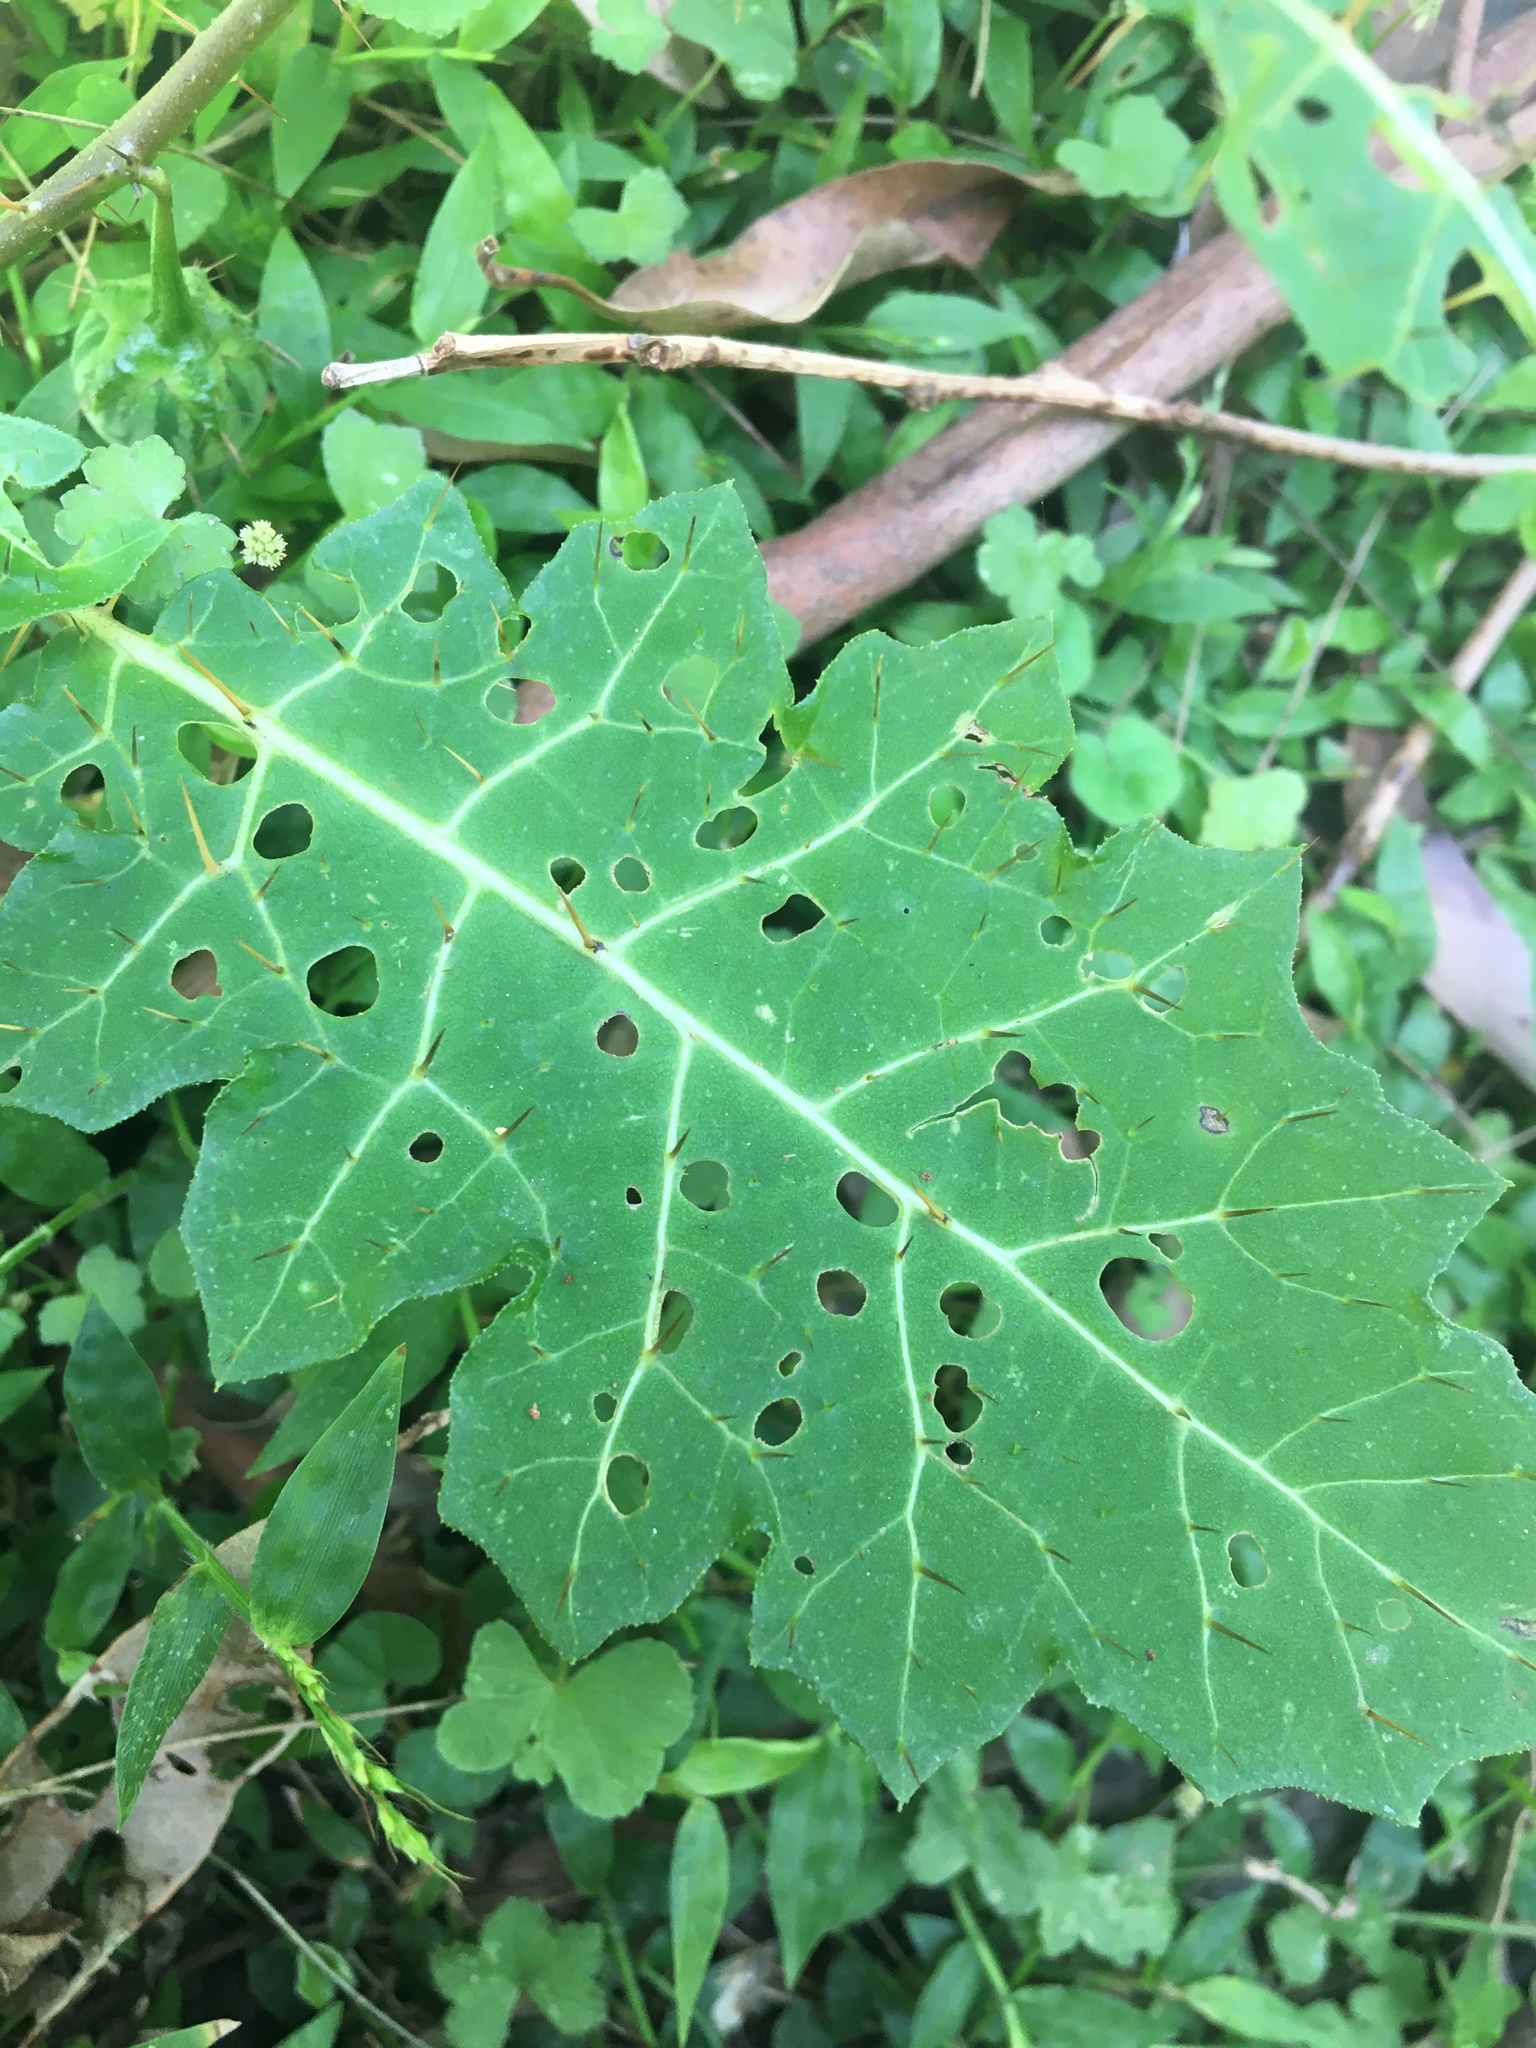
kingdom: Plantae
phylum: Tracheophyta
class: Magnoliopsida
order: Solanales
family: Solanaceae
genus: Solanum
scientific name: Solanum prinophyllum
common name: Forest nightshade
